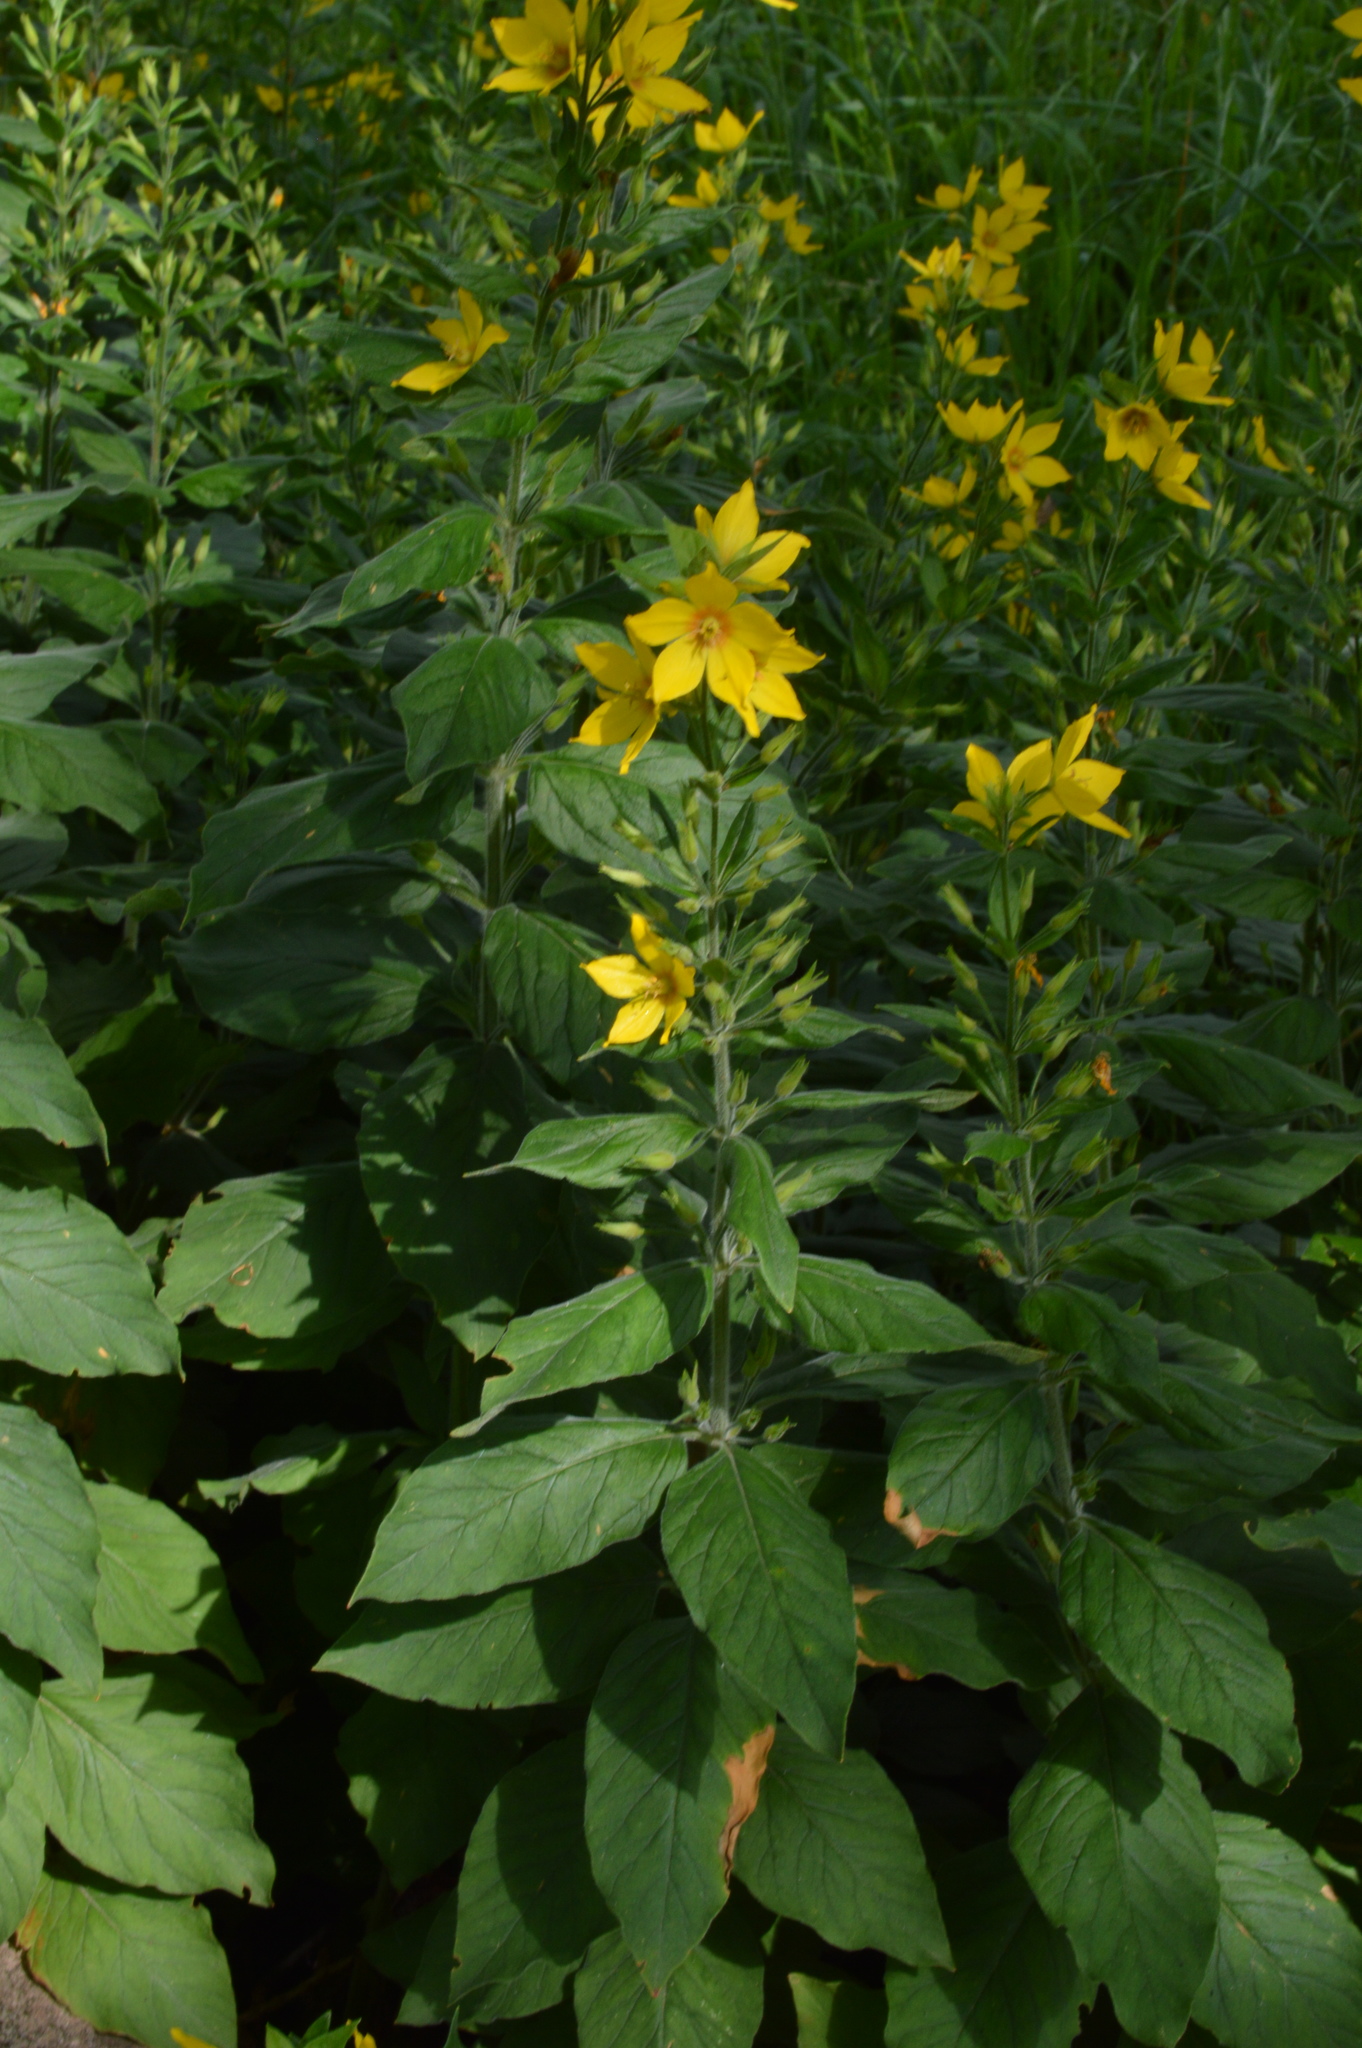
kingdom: Plantae
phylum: Tracheophyta
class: Magnoliopsida
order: Ericales
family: Primulaceae
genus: Lysimachia
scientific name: Lysimachia punctata
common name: Dotted loosestrife
